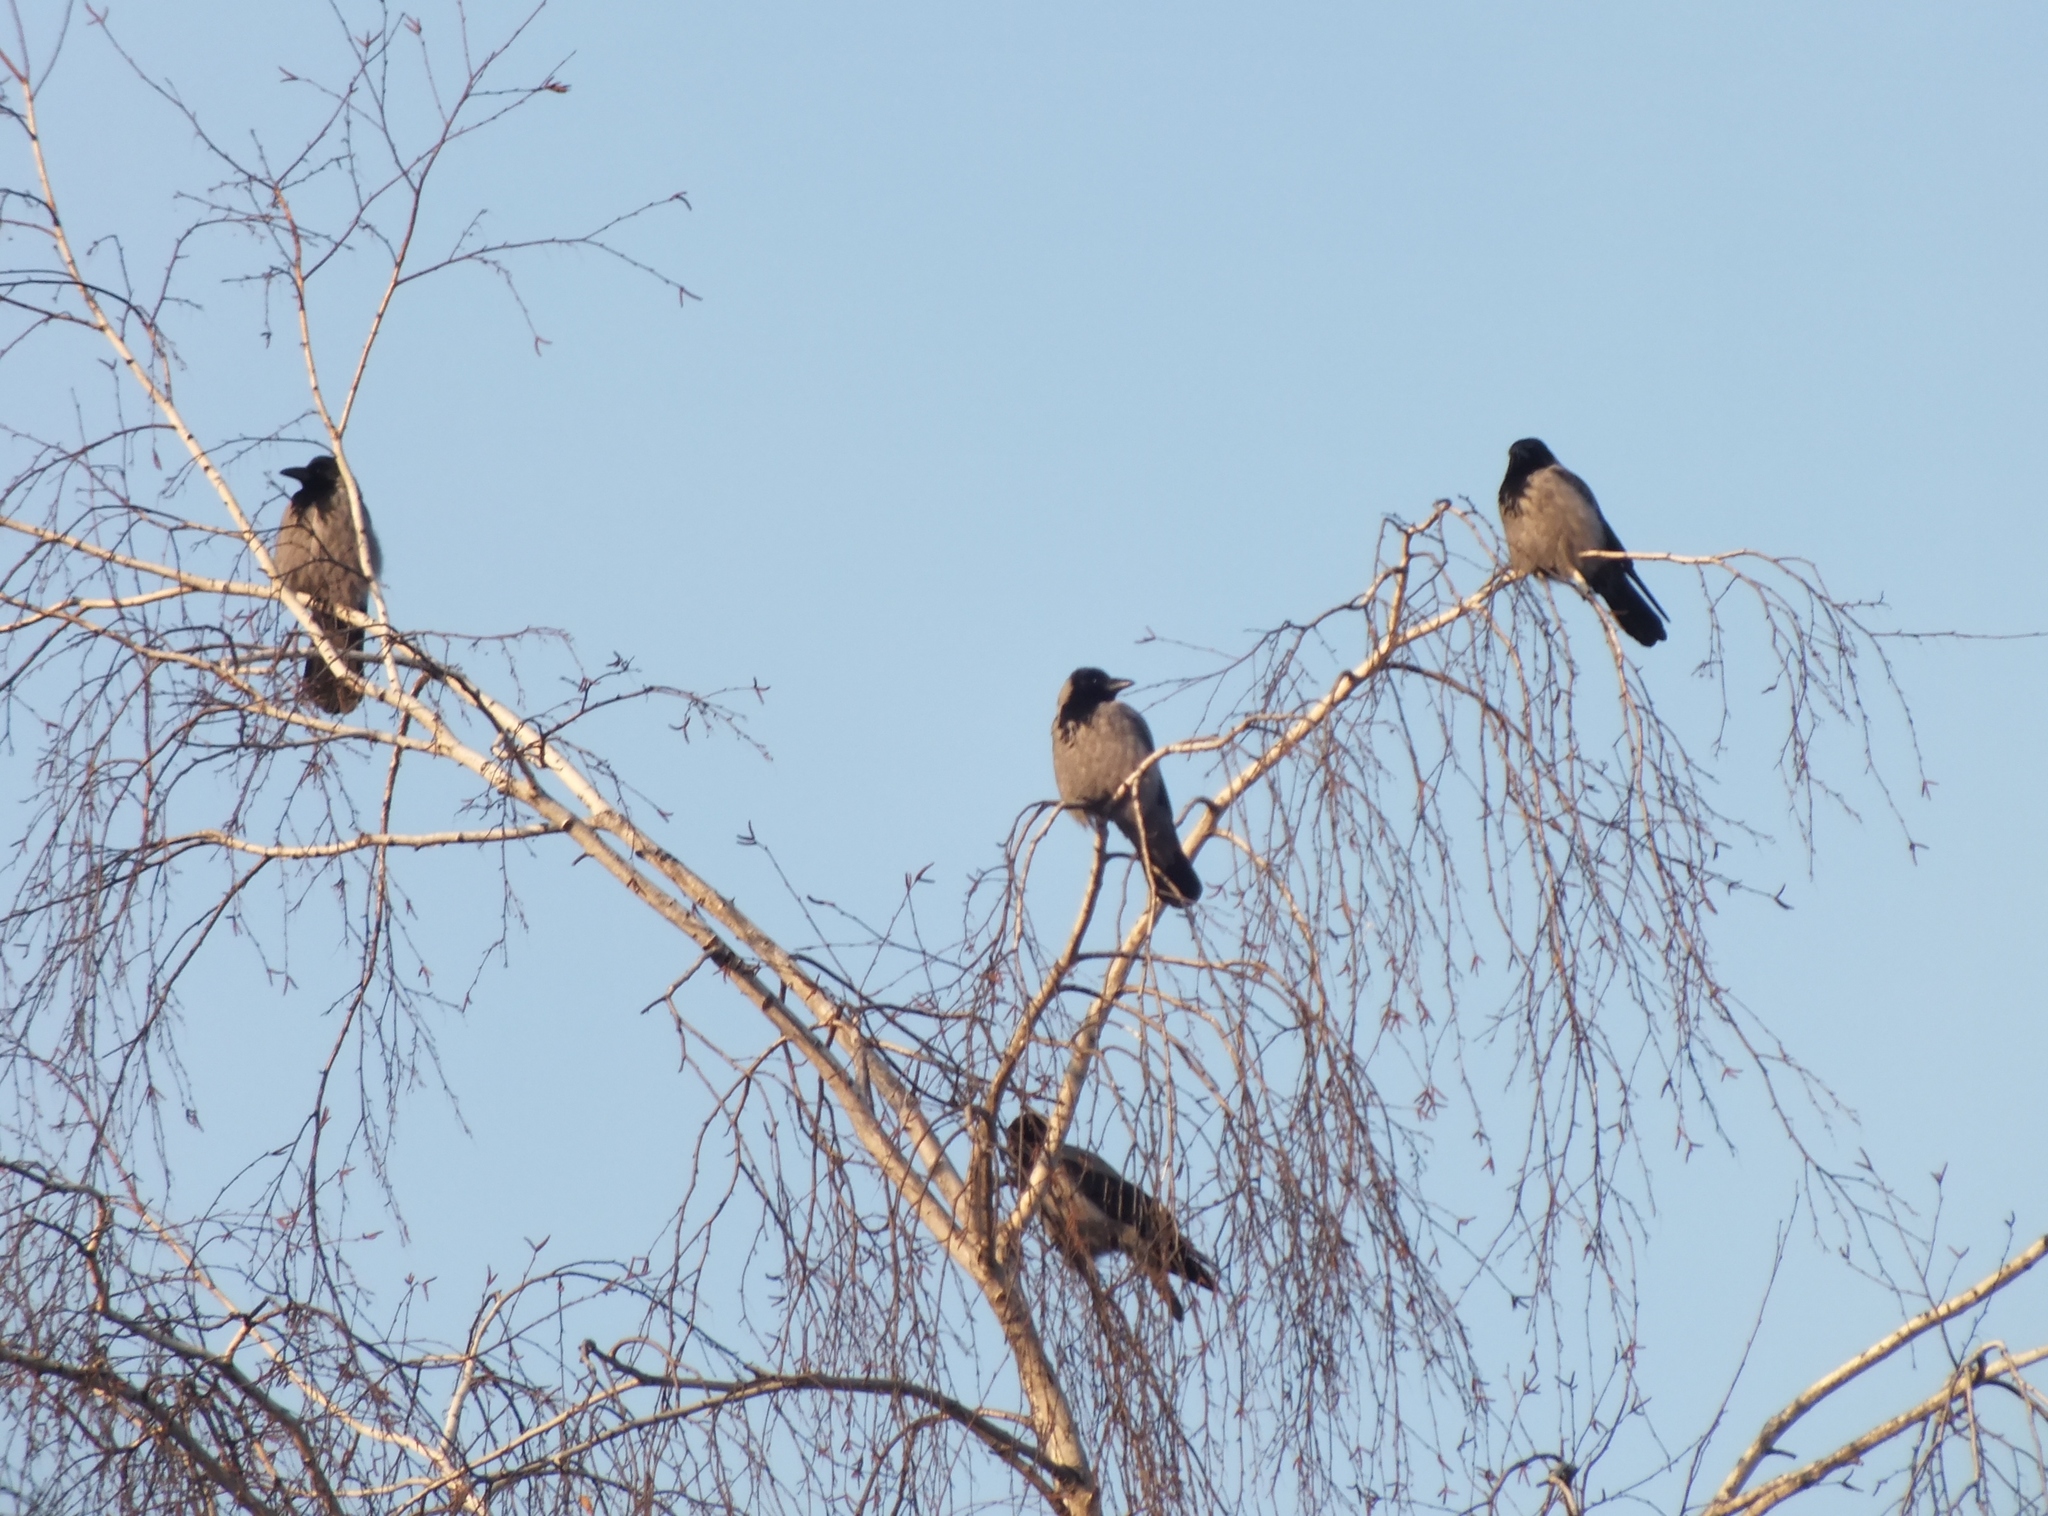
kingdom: Animalia
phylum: Chordata
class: Aves
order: Passeriformes
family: Corvidae
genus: Corvus
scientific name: Corvus cornix
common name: Hooded crow
